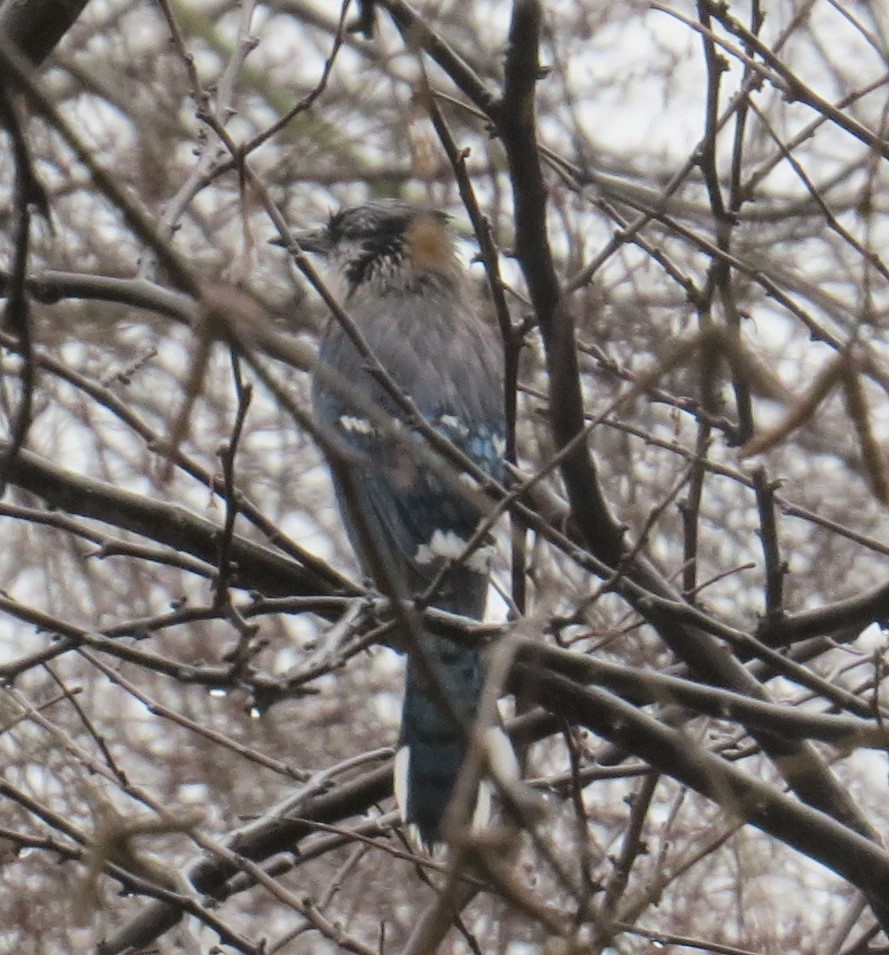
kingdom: Animalia
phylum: Chordata
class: Aves
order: Passeriformes
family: Corvidae
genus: Cyanocitta
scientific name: Cyanocitta cristata
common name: Blue jay
